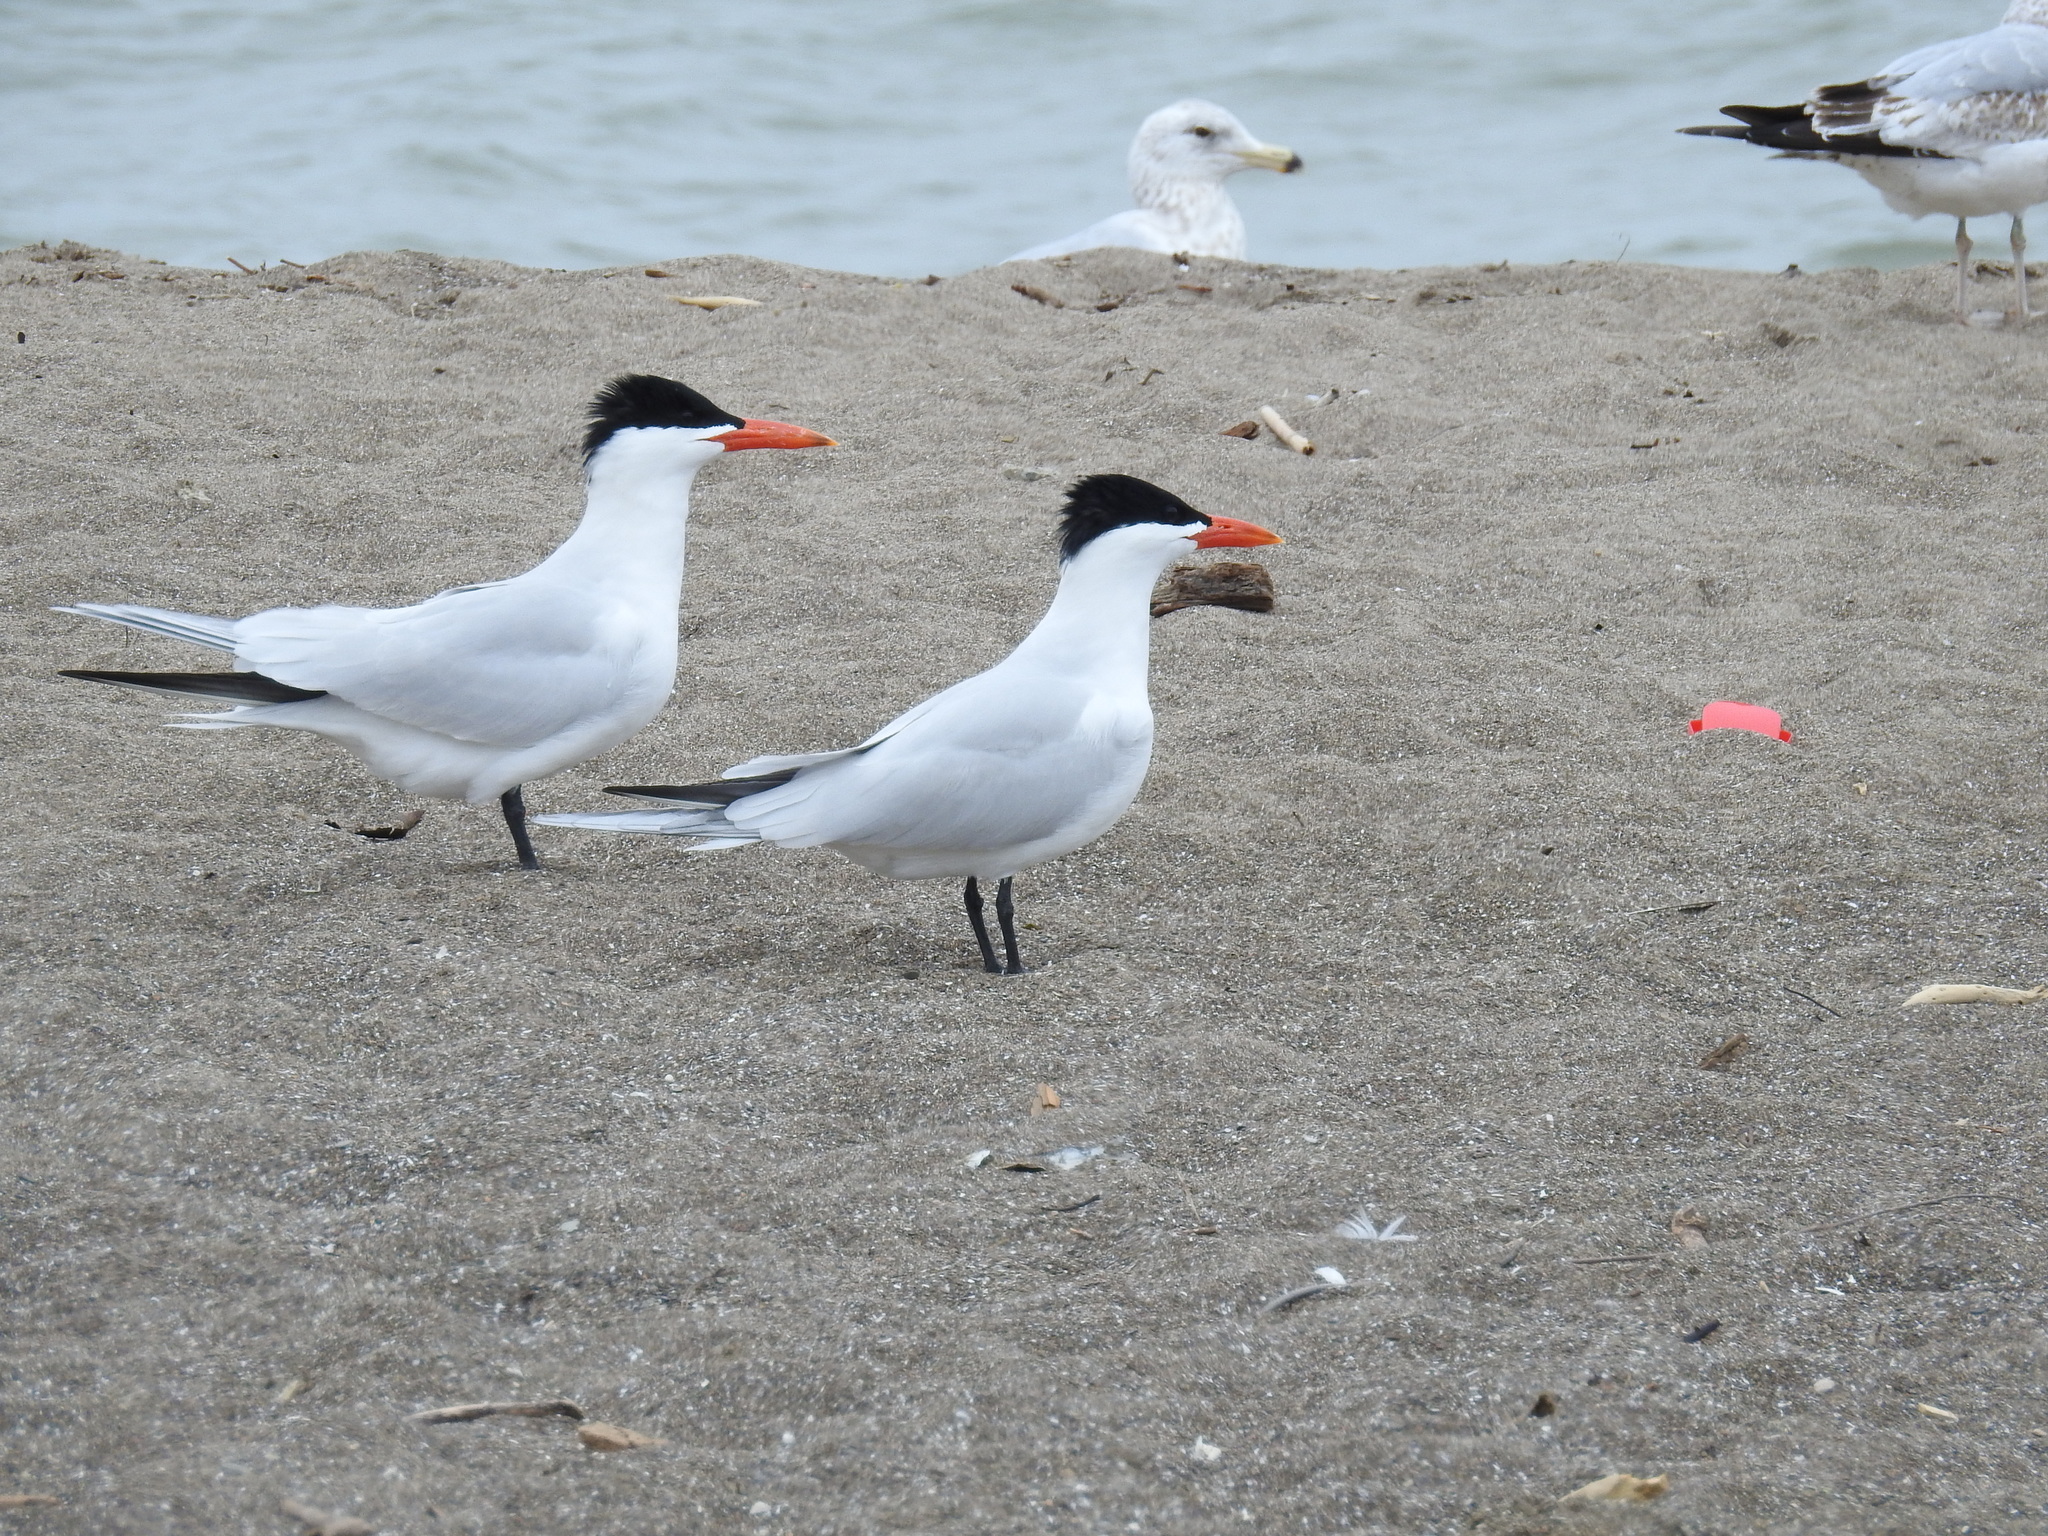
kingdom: Animalia
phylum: Chordata
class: Aves
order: Charadriiformes
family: Laridae
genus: Hydroprogne
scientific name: Hydroprogne caspia
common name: Caspian tern
